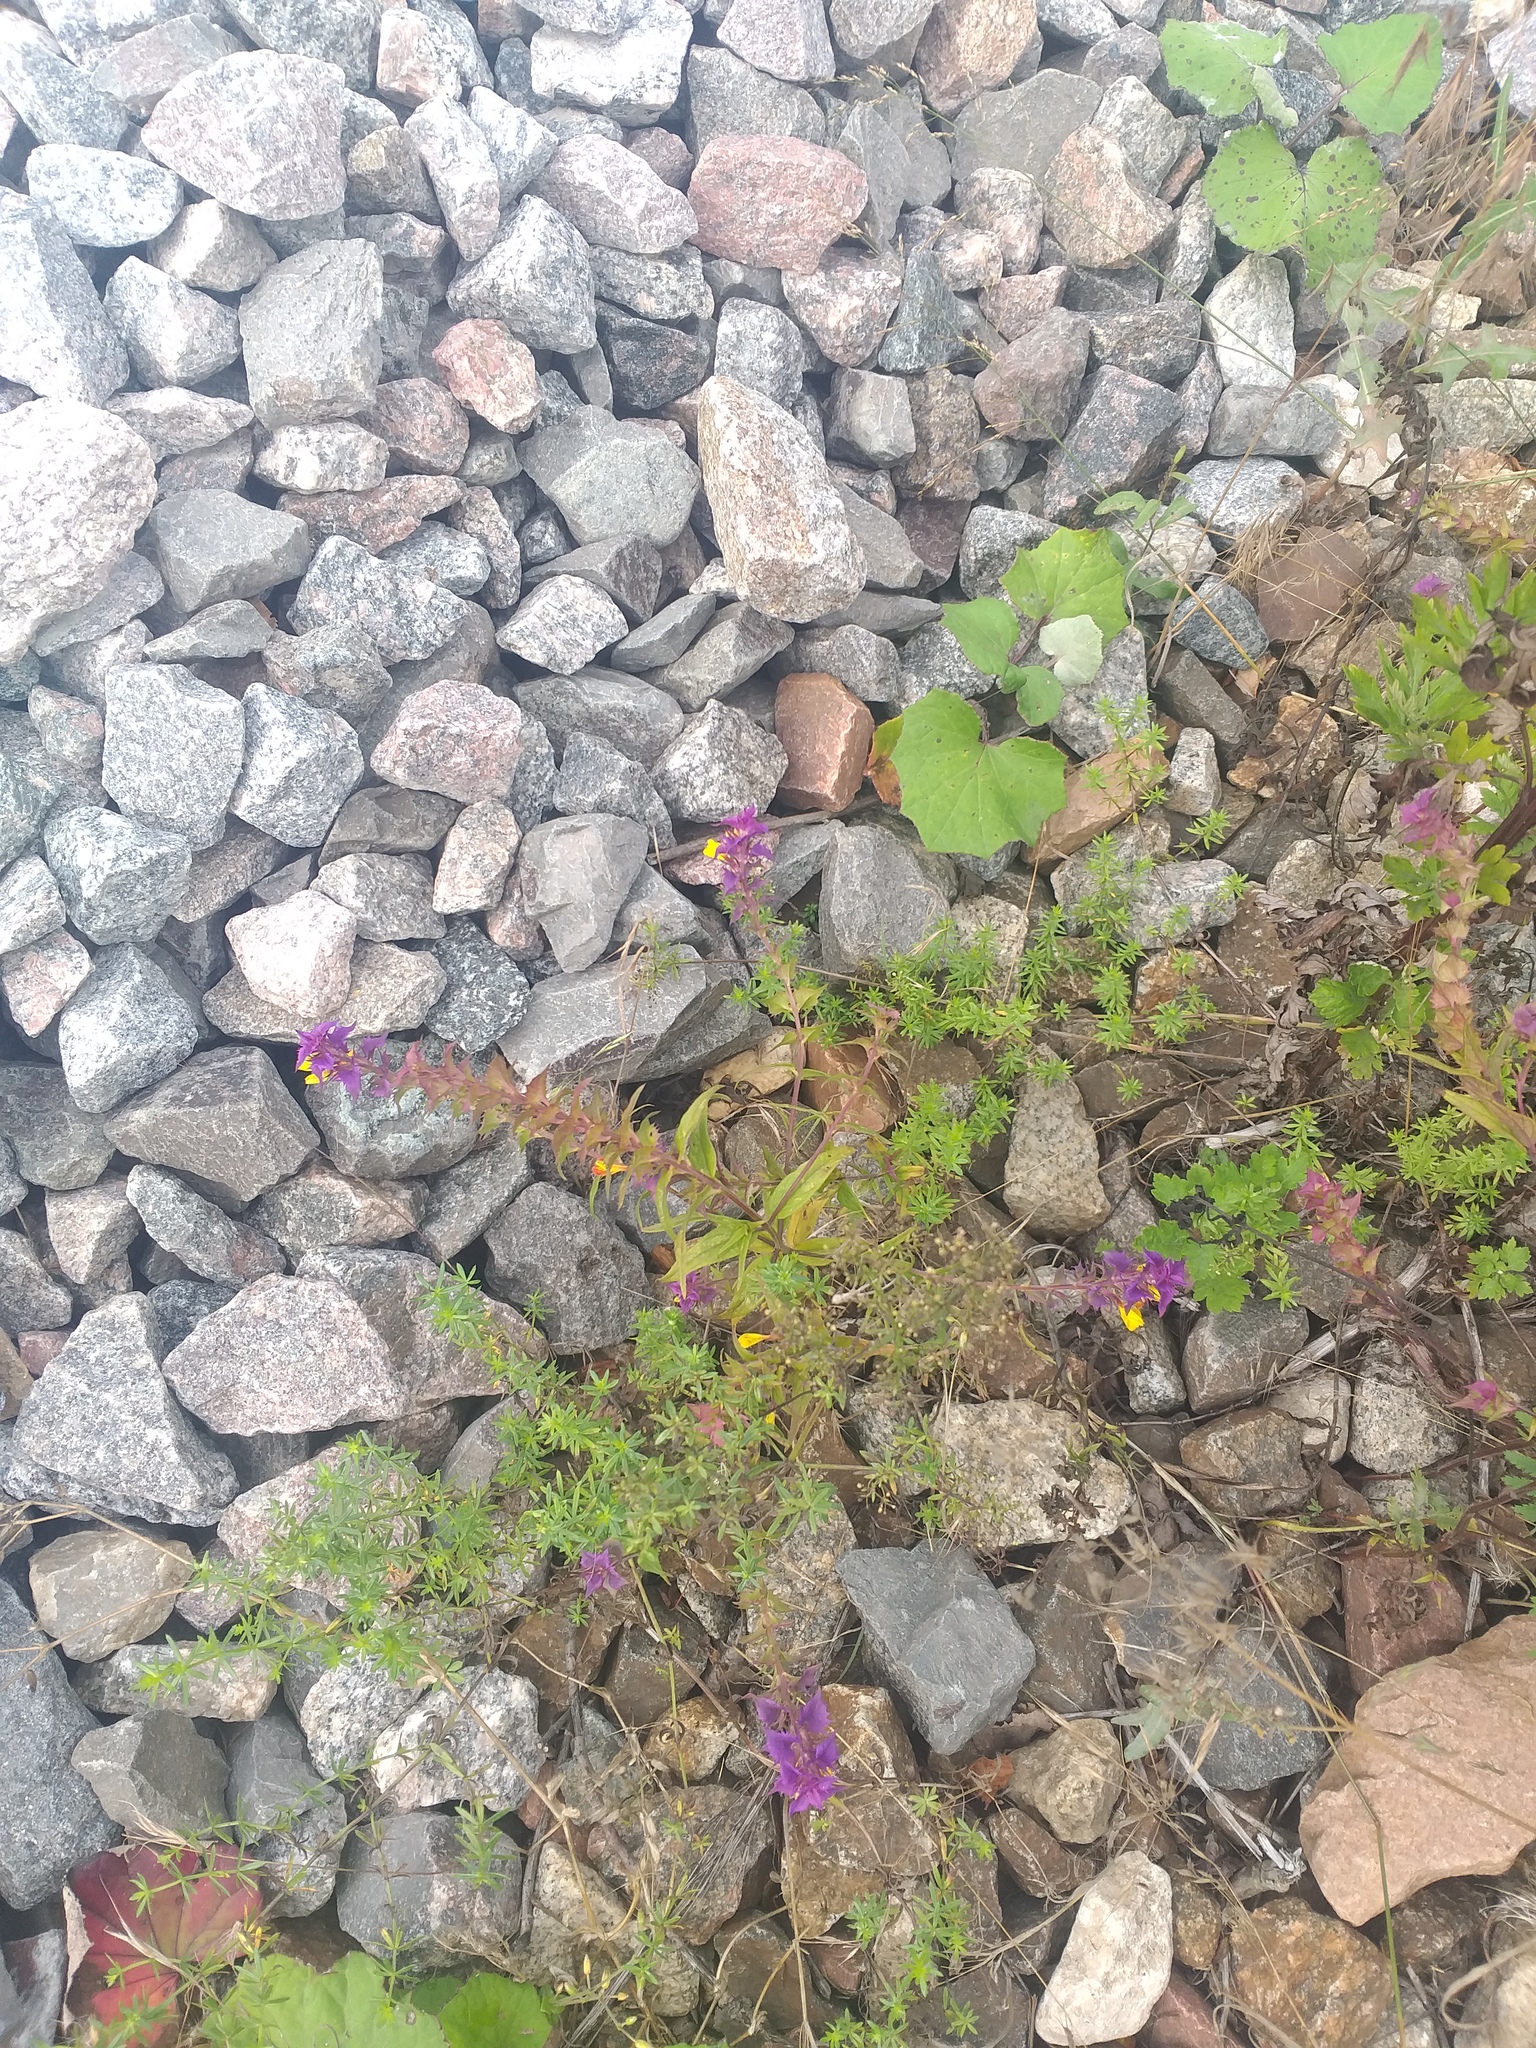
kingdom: Plantae
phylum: Tracheophyta
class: Magnoliopsida
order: Lamiales
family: Orobanchaceae
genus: Melampyrum
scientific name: Melampyrum nemorosum
